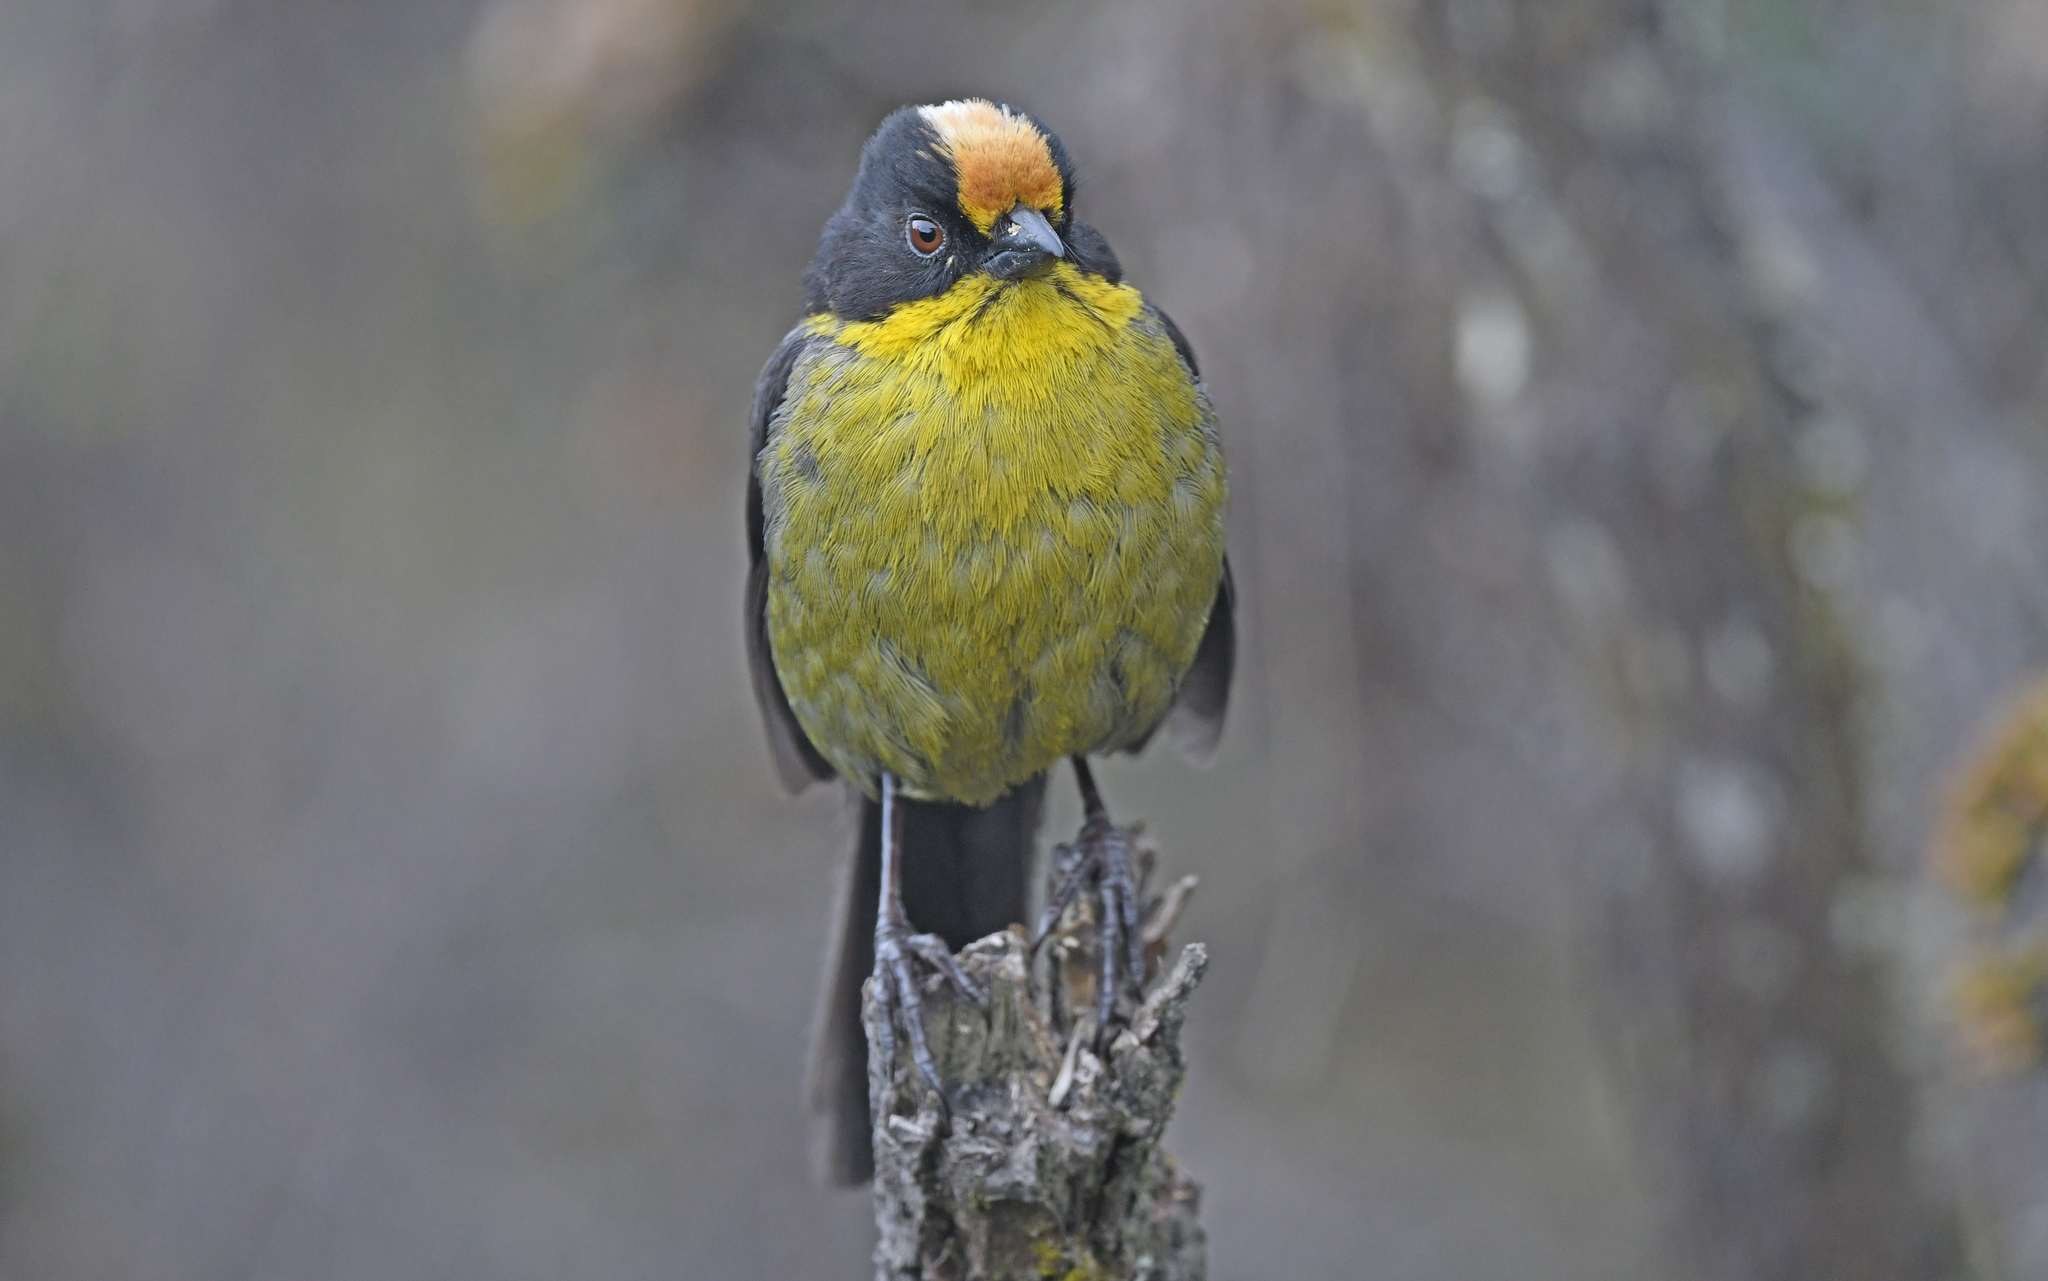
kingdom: Animalia
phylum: Chordata
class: Aves
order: Passeriformes
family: Passerellidae
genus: Atlapetes
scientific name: Atlapetes pallidinucha
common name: Pale-naped brushfinch
